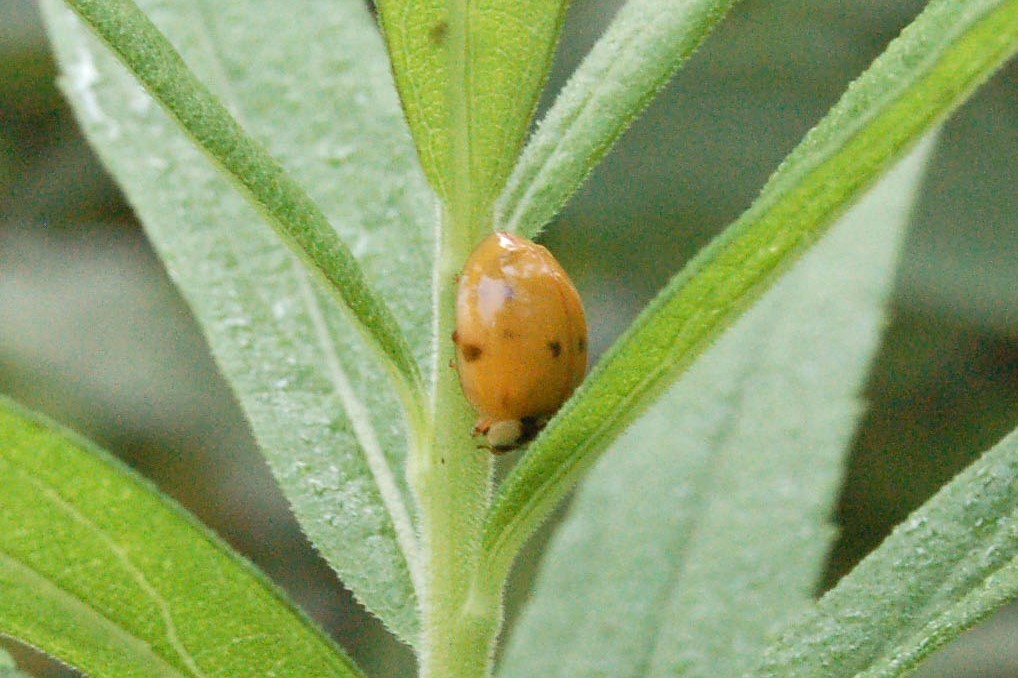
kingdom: Animalia
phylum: Arthropoda
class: Insecta
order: Coleoptera
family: Coccinellidae
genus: Harmonia
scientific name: Harmonia axyridis
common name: Harlequin ladybird
